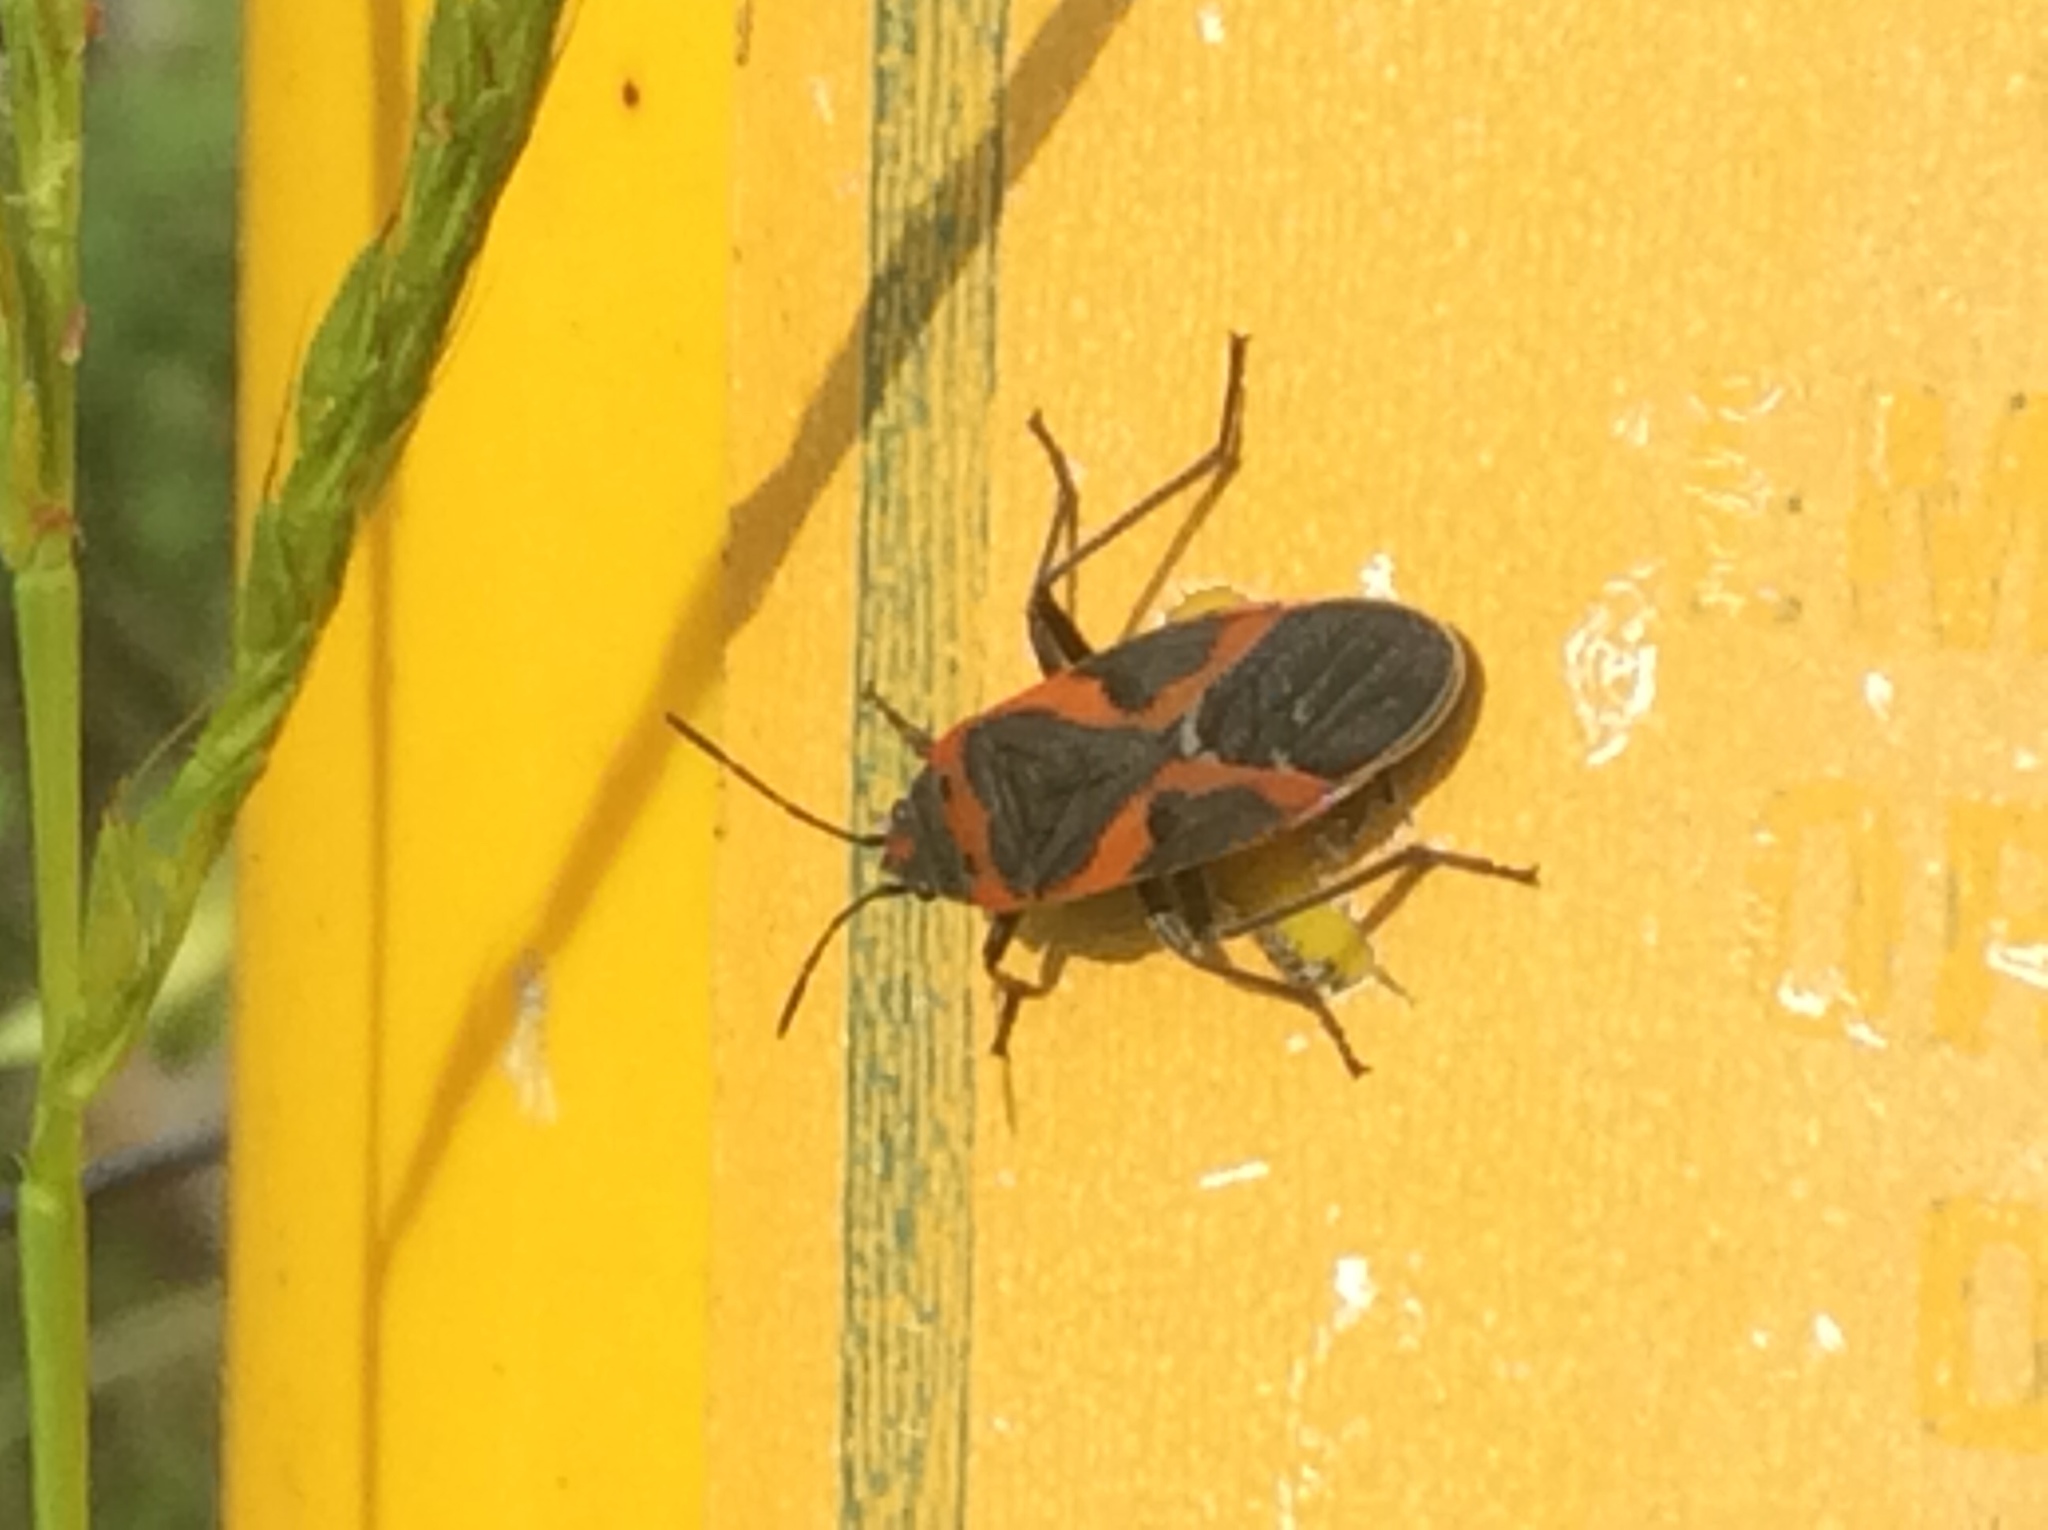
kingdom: Animalia
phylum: Arthropoda
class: Insecta
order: Hemiptera
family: Lygaeidae
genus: Lygaeus
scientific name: Lygaeus kalmii
